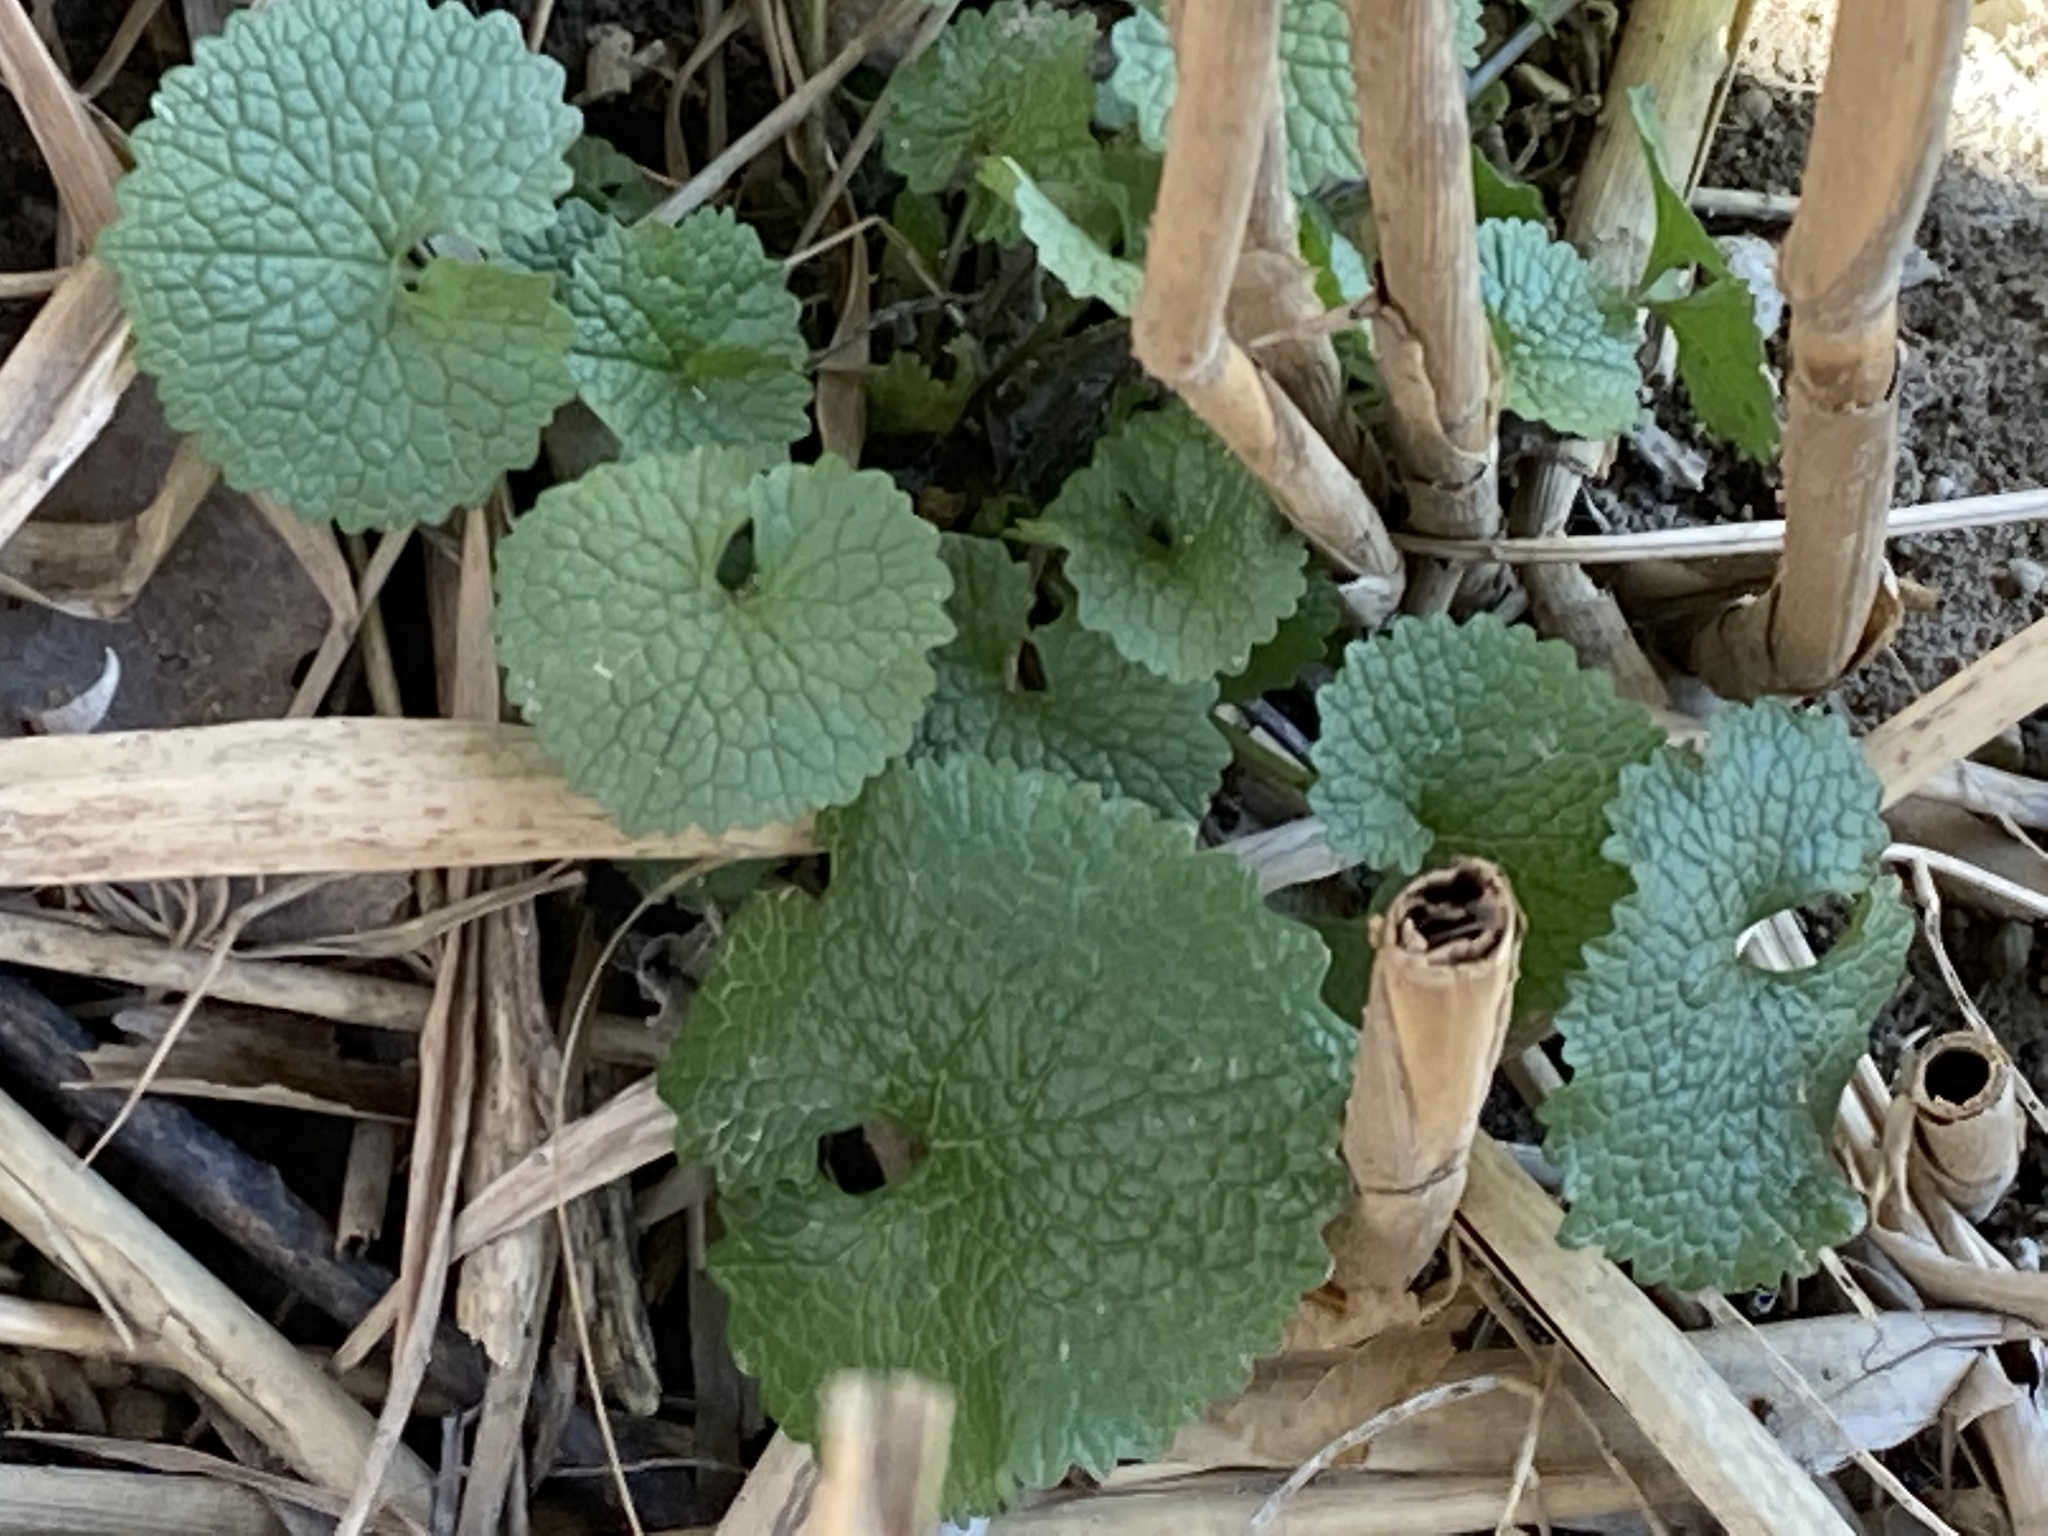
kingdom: Plantae
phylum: Tracheophyta
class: Magnoliopsida
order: Brassicales
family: Brassicaceae
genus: Alliaria
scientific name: Alliaria petiolata
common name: Garlic mustard
